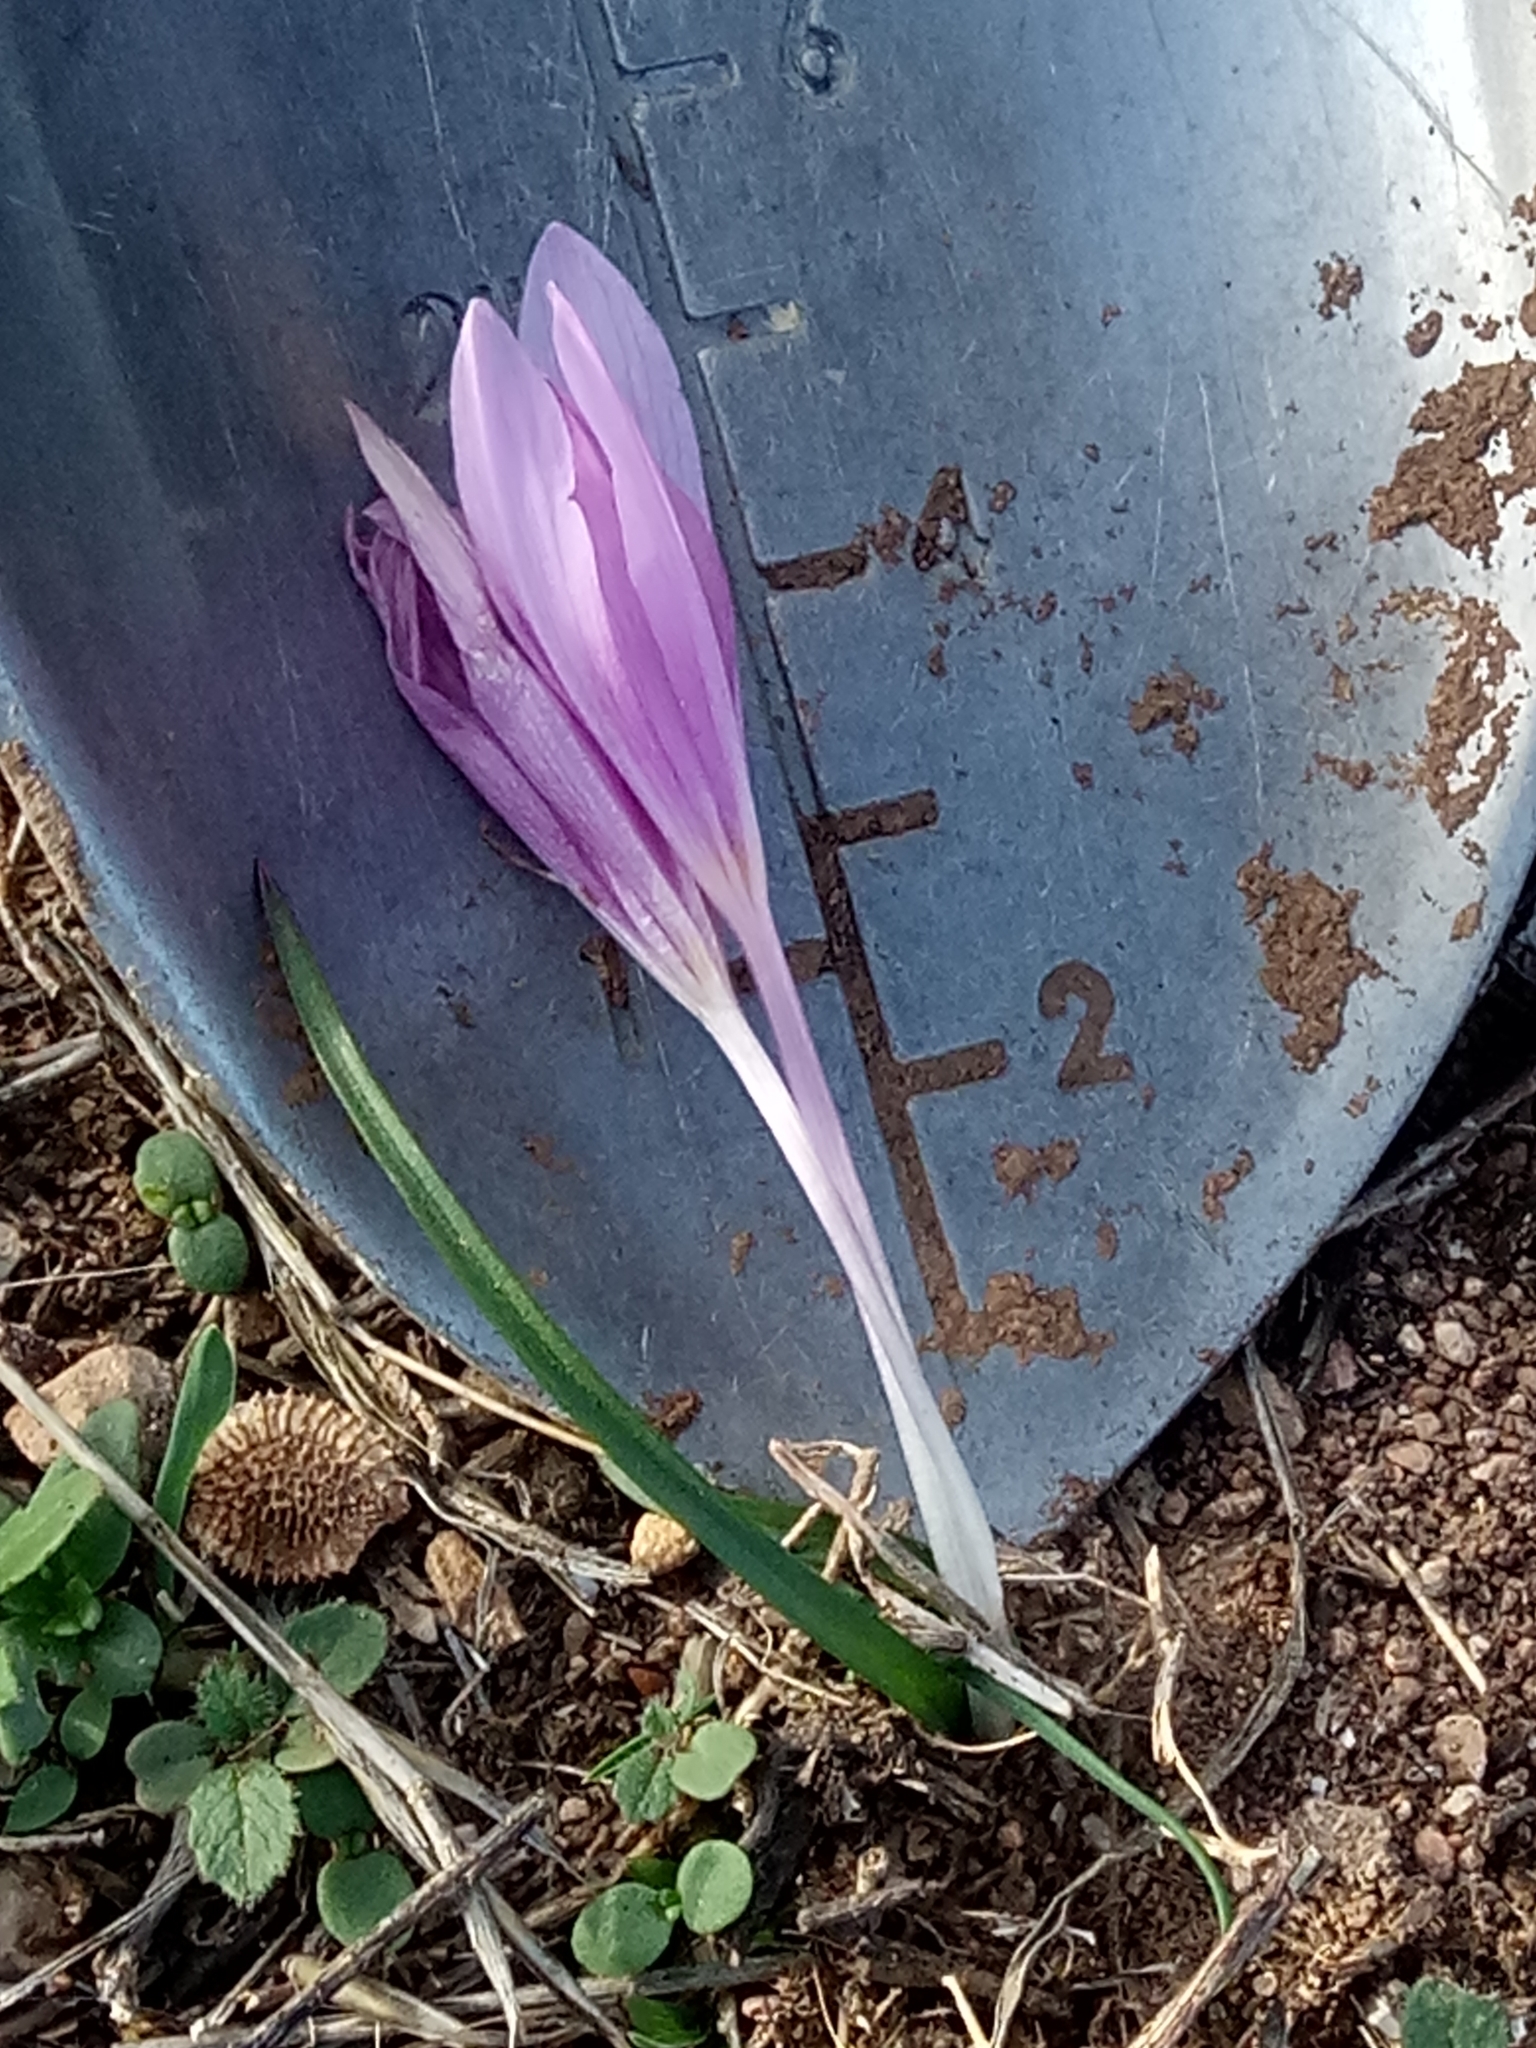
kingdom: Plantae
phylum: Tracheophyta
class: Liliopsida
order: Liliales
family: Colchicaceae
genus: Colchicum
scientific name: Colchicum cupanii
